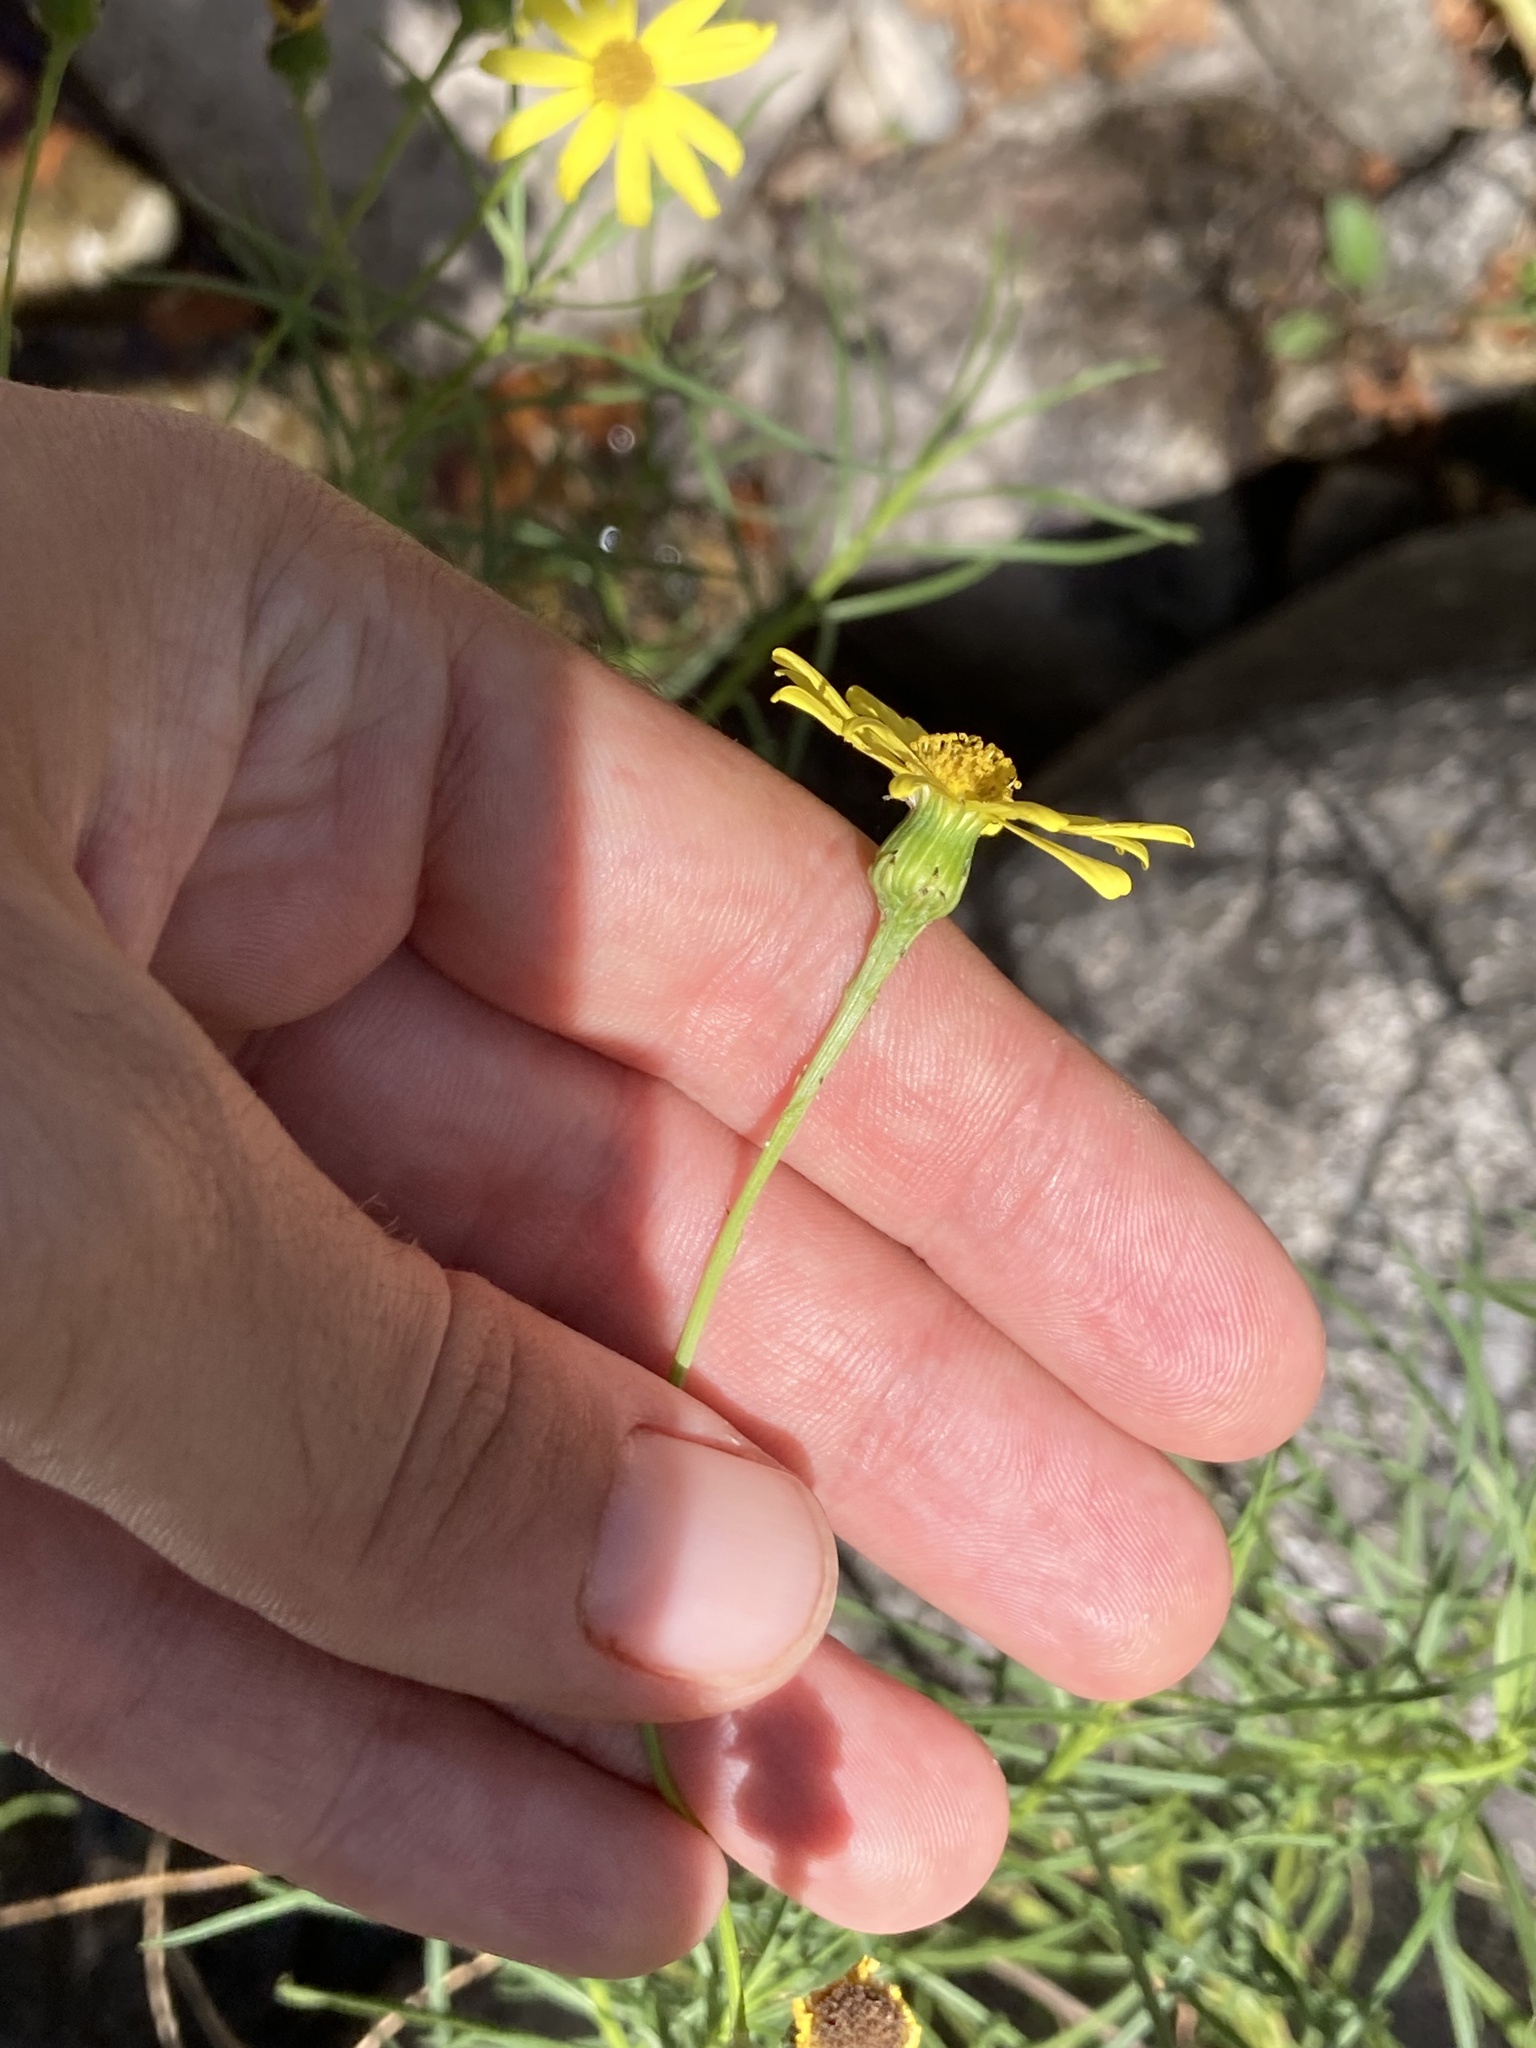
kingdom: Plantae
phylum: Tracheophyta
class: Magnoliopsida
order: Asterales
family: Asteraceae
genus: Senecio
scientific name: Senecio inaequidens
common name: Narrow-leaved ragwort
